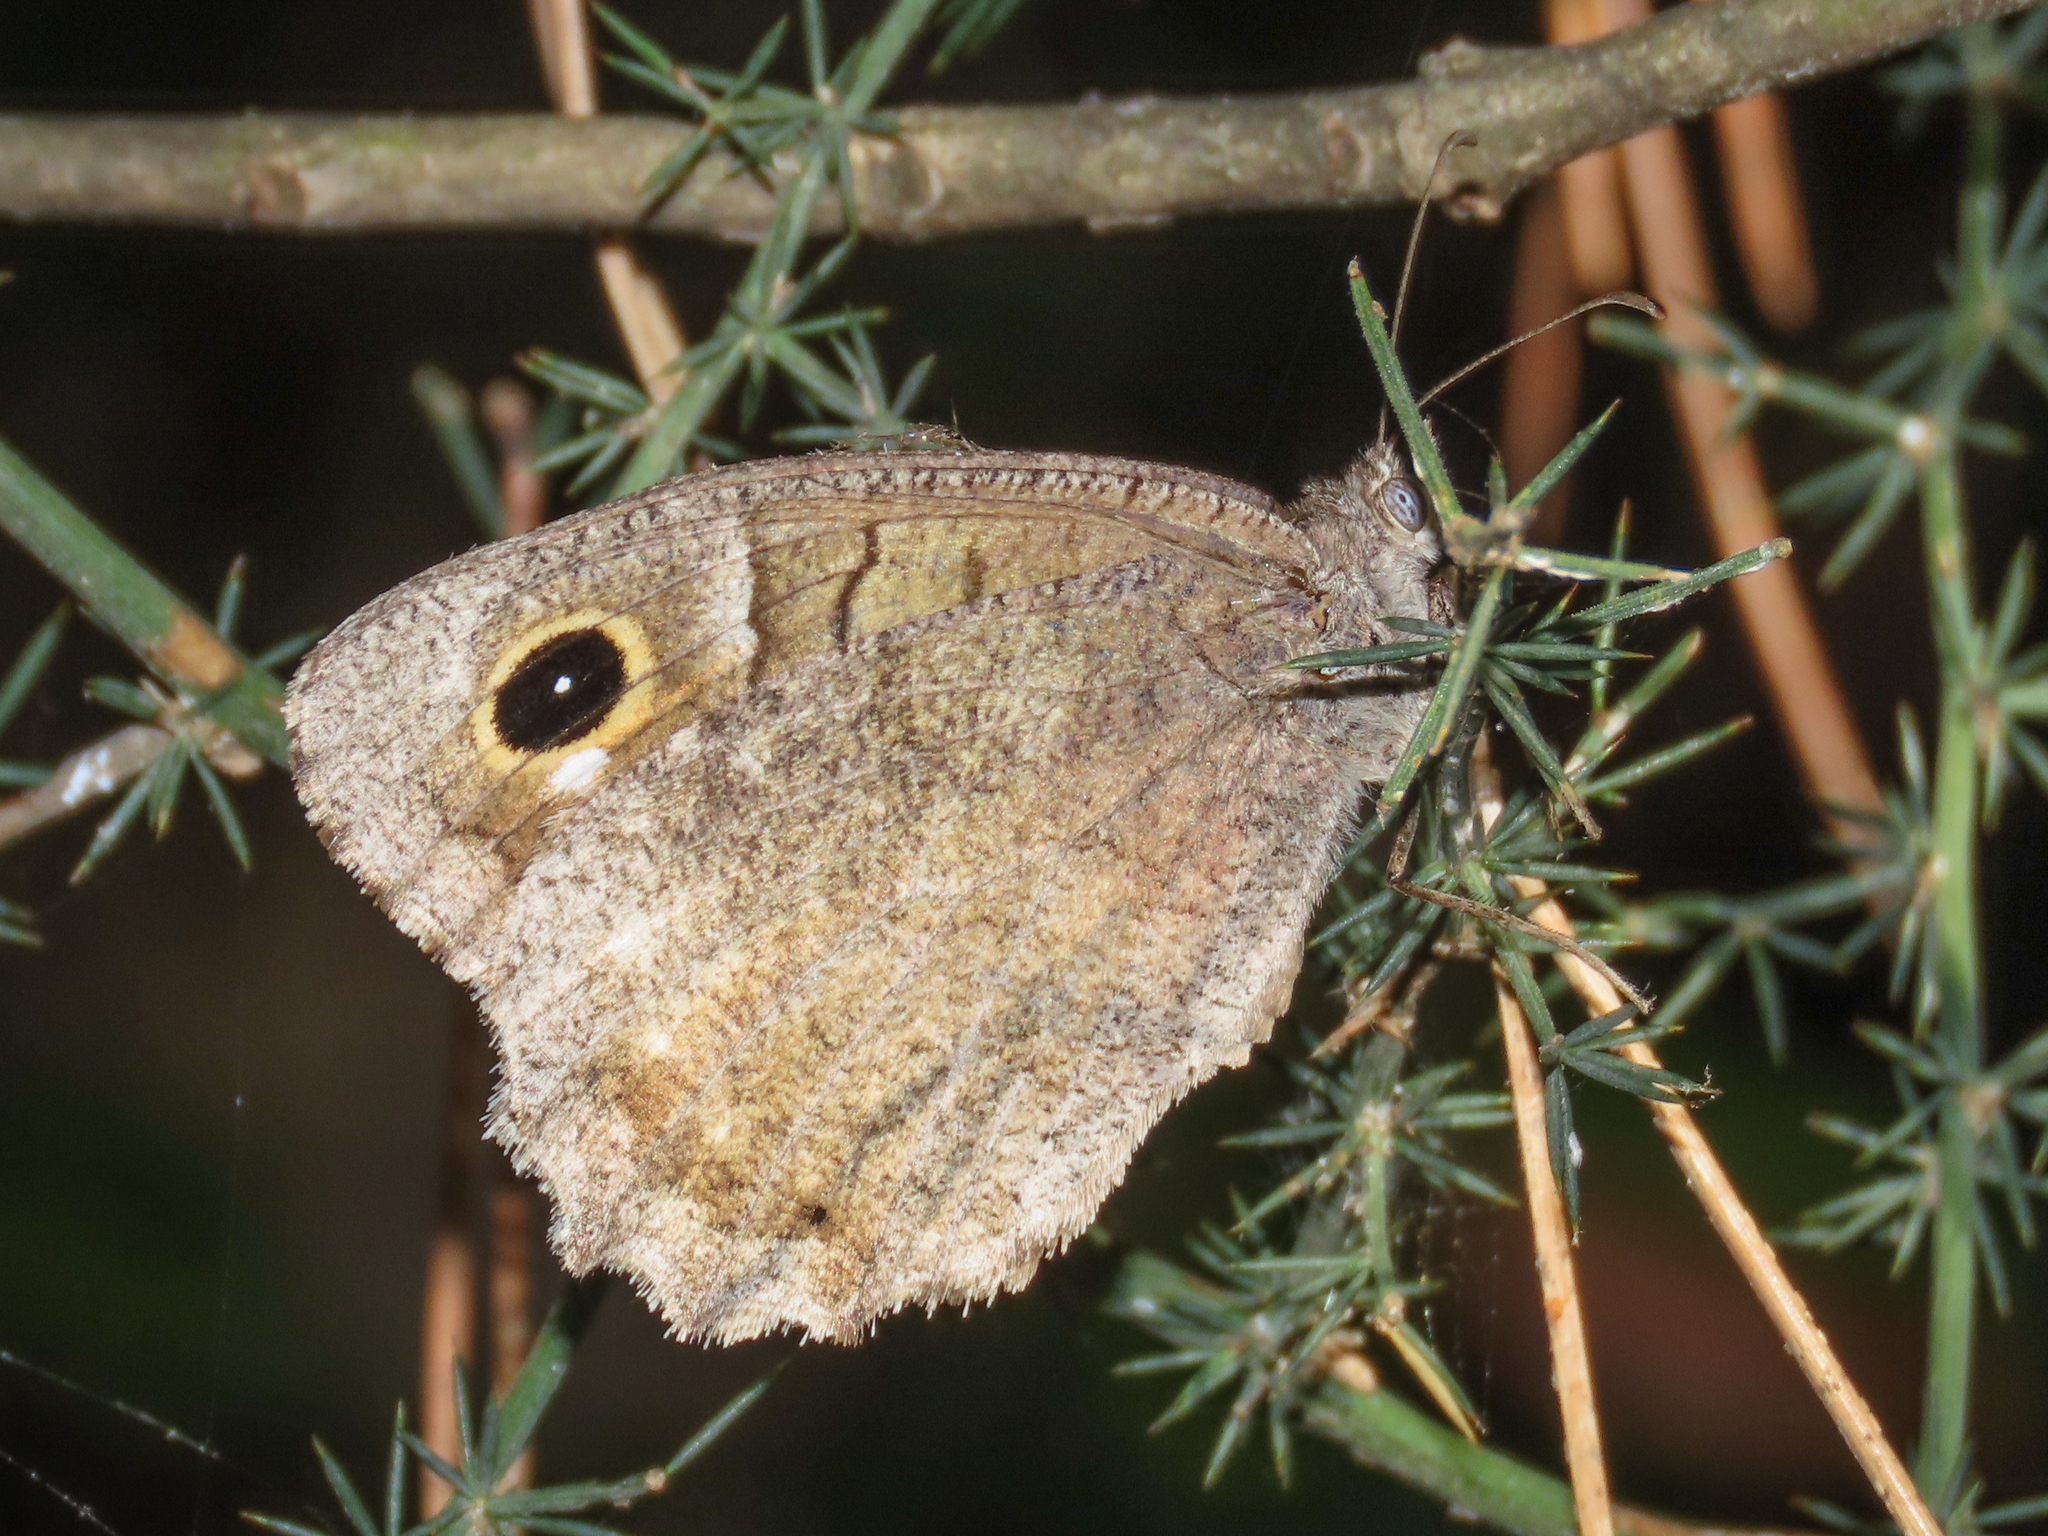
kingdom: Animalia
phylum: Arthropoda
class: Insecta
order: Lepidoptera
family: Nymphalidae
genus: Hipparchia
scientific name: Hipparchia statilinus
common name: Tree grayling
